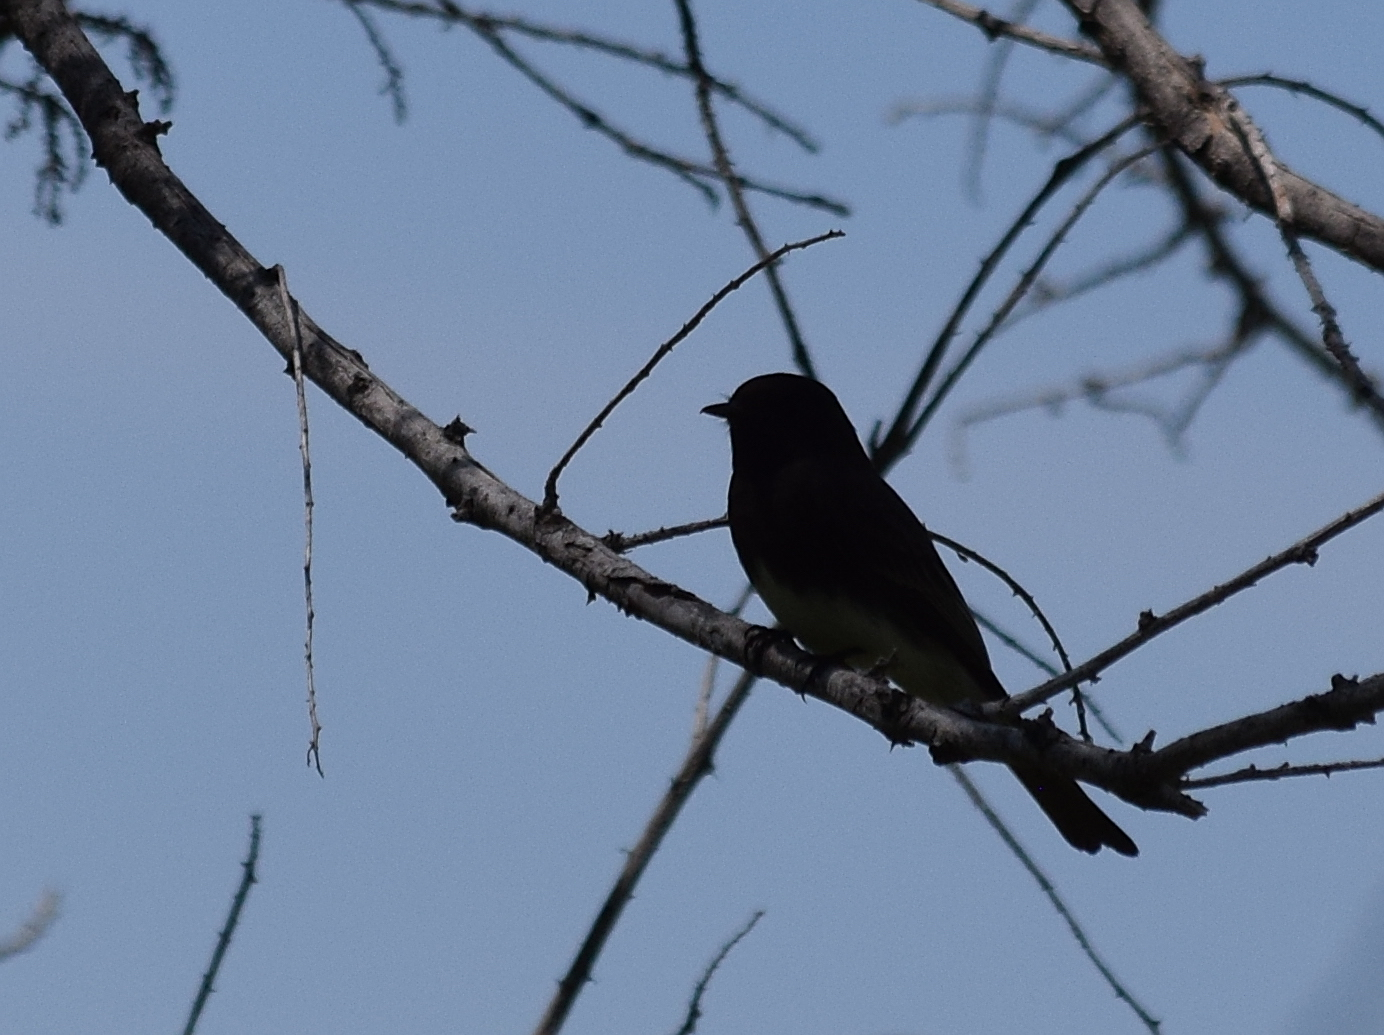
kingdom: Animalia
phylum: Chordata
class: Aves
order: Passeriformes
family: Tyrannidae
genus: Sayornis
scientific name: Sayornis nigricans
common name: Black phoebe
